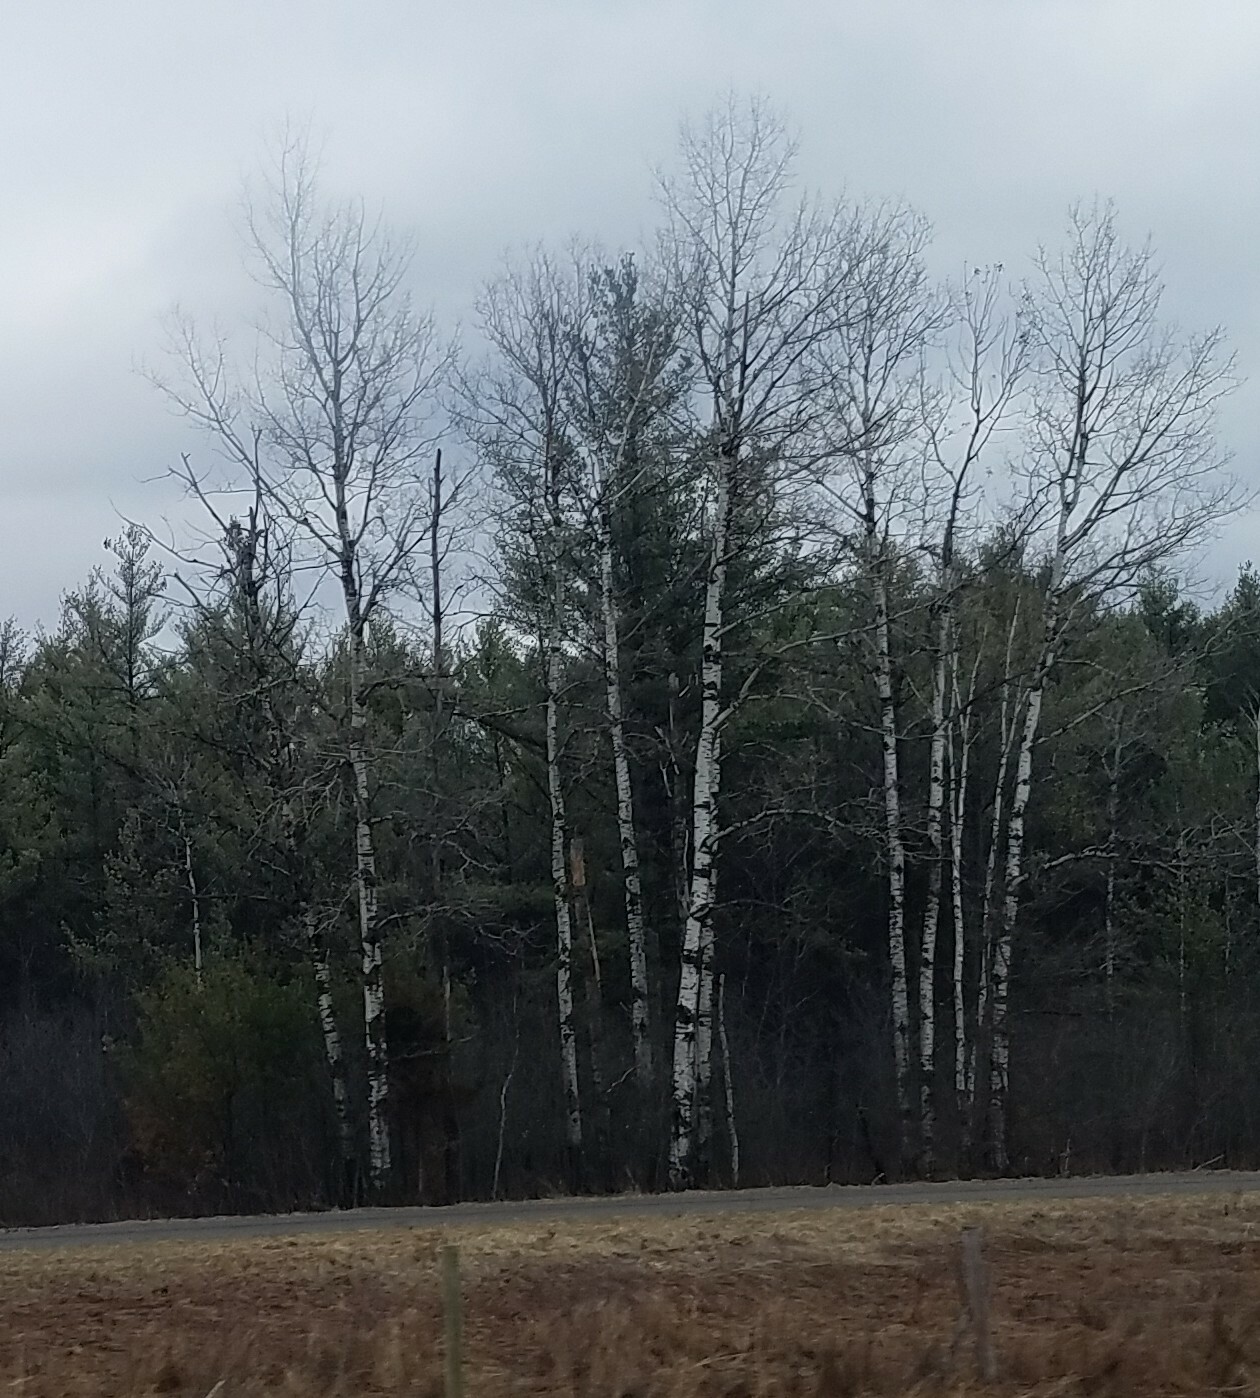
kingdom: Plantae
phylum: Tracheophyta
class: Magnoliopsida
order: Malpighiales
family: Salicaceae
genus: Populus
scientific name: Populus tremuloides
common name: Quaking aspen
